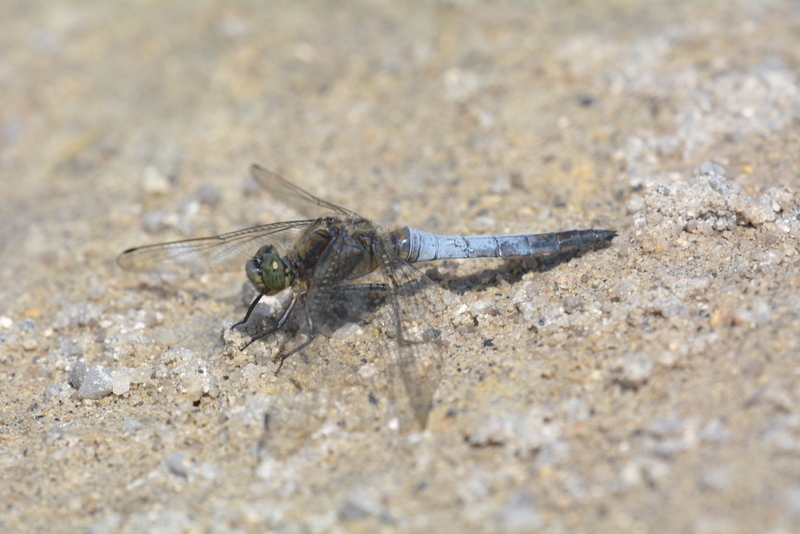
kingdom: Animalia
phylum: Arthropoda
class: Insecta
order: Odonata
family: Libellulidae
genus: Orthetrum
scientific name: Orthetrum cancellatum
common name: Black-tailed skimmer
